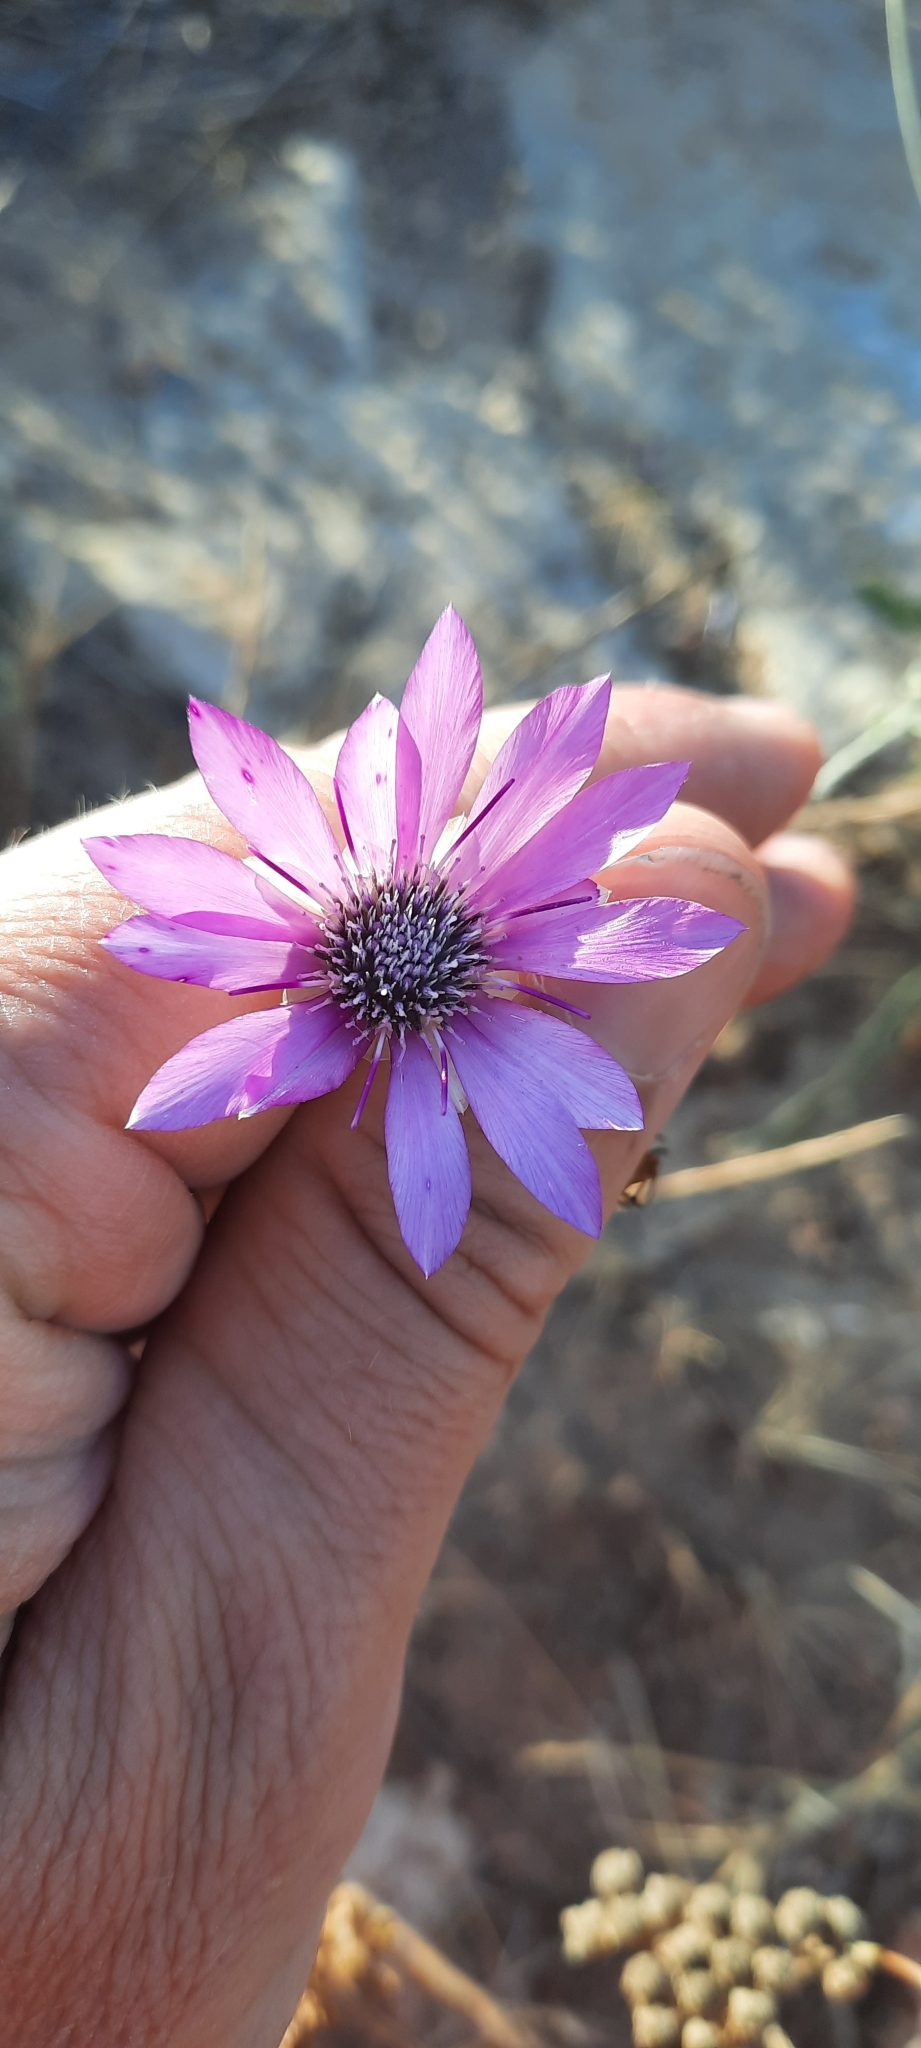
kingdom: Plantae
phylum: Tracheophyta
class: Magnoliopsida
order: Asterales
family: Asteraceae
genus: Xeranthemum
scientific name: Xeranthemum annuum
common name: Immortelle
